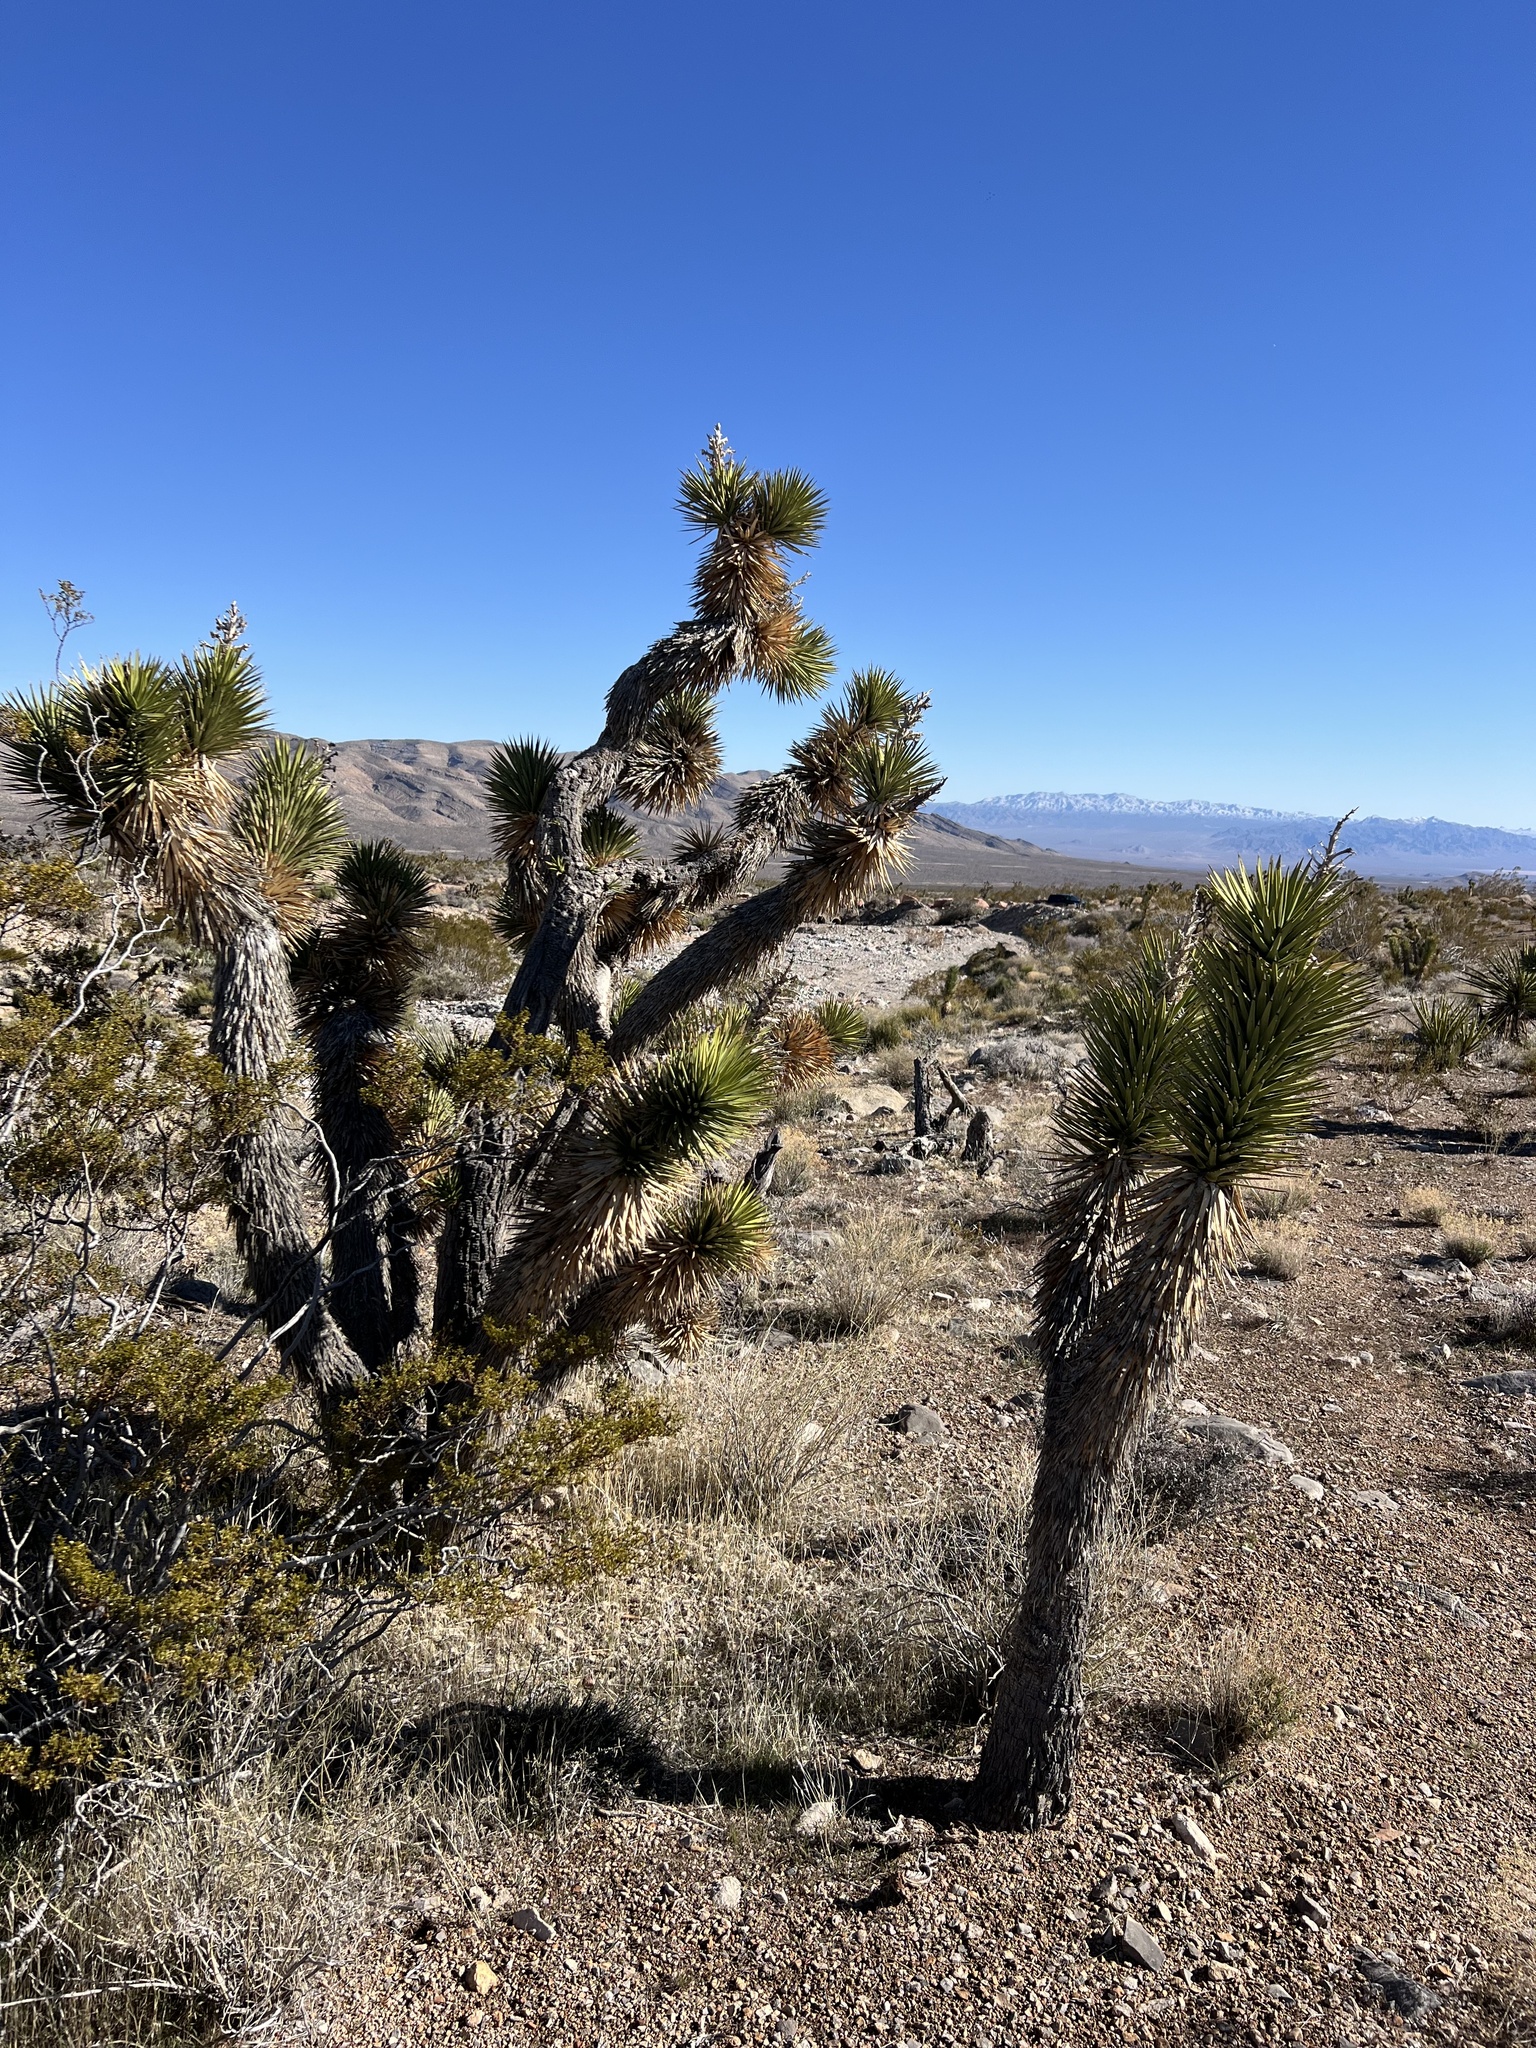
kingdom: Plantae
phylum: Tracheophyta
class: Liliopsida
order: Asparagales
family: Asparagaceae
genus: Yucca
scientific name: Yucca brevifolia
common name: Joshua tree
